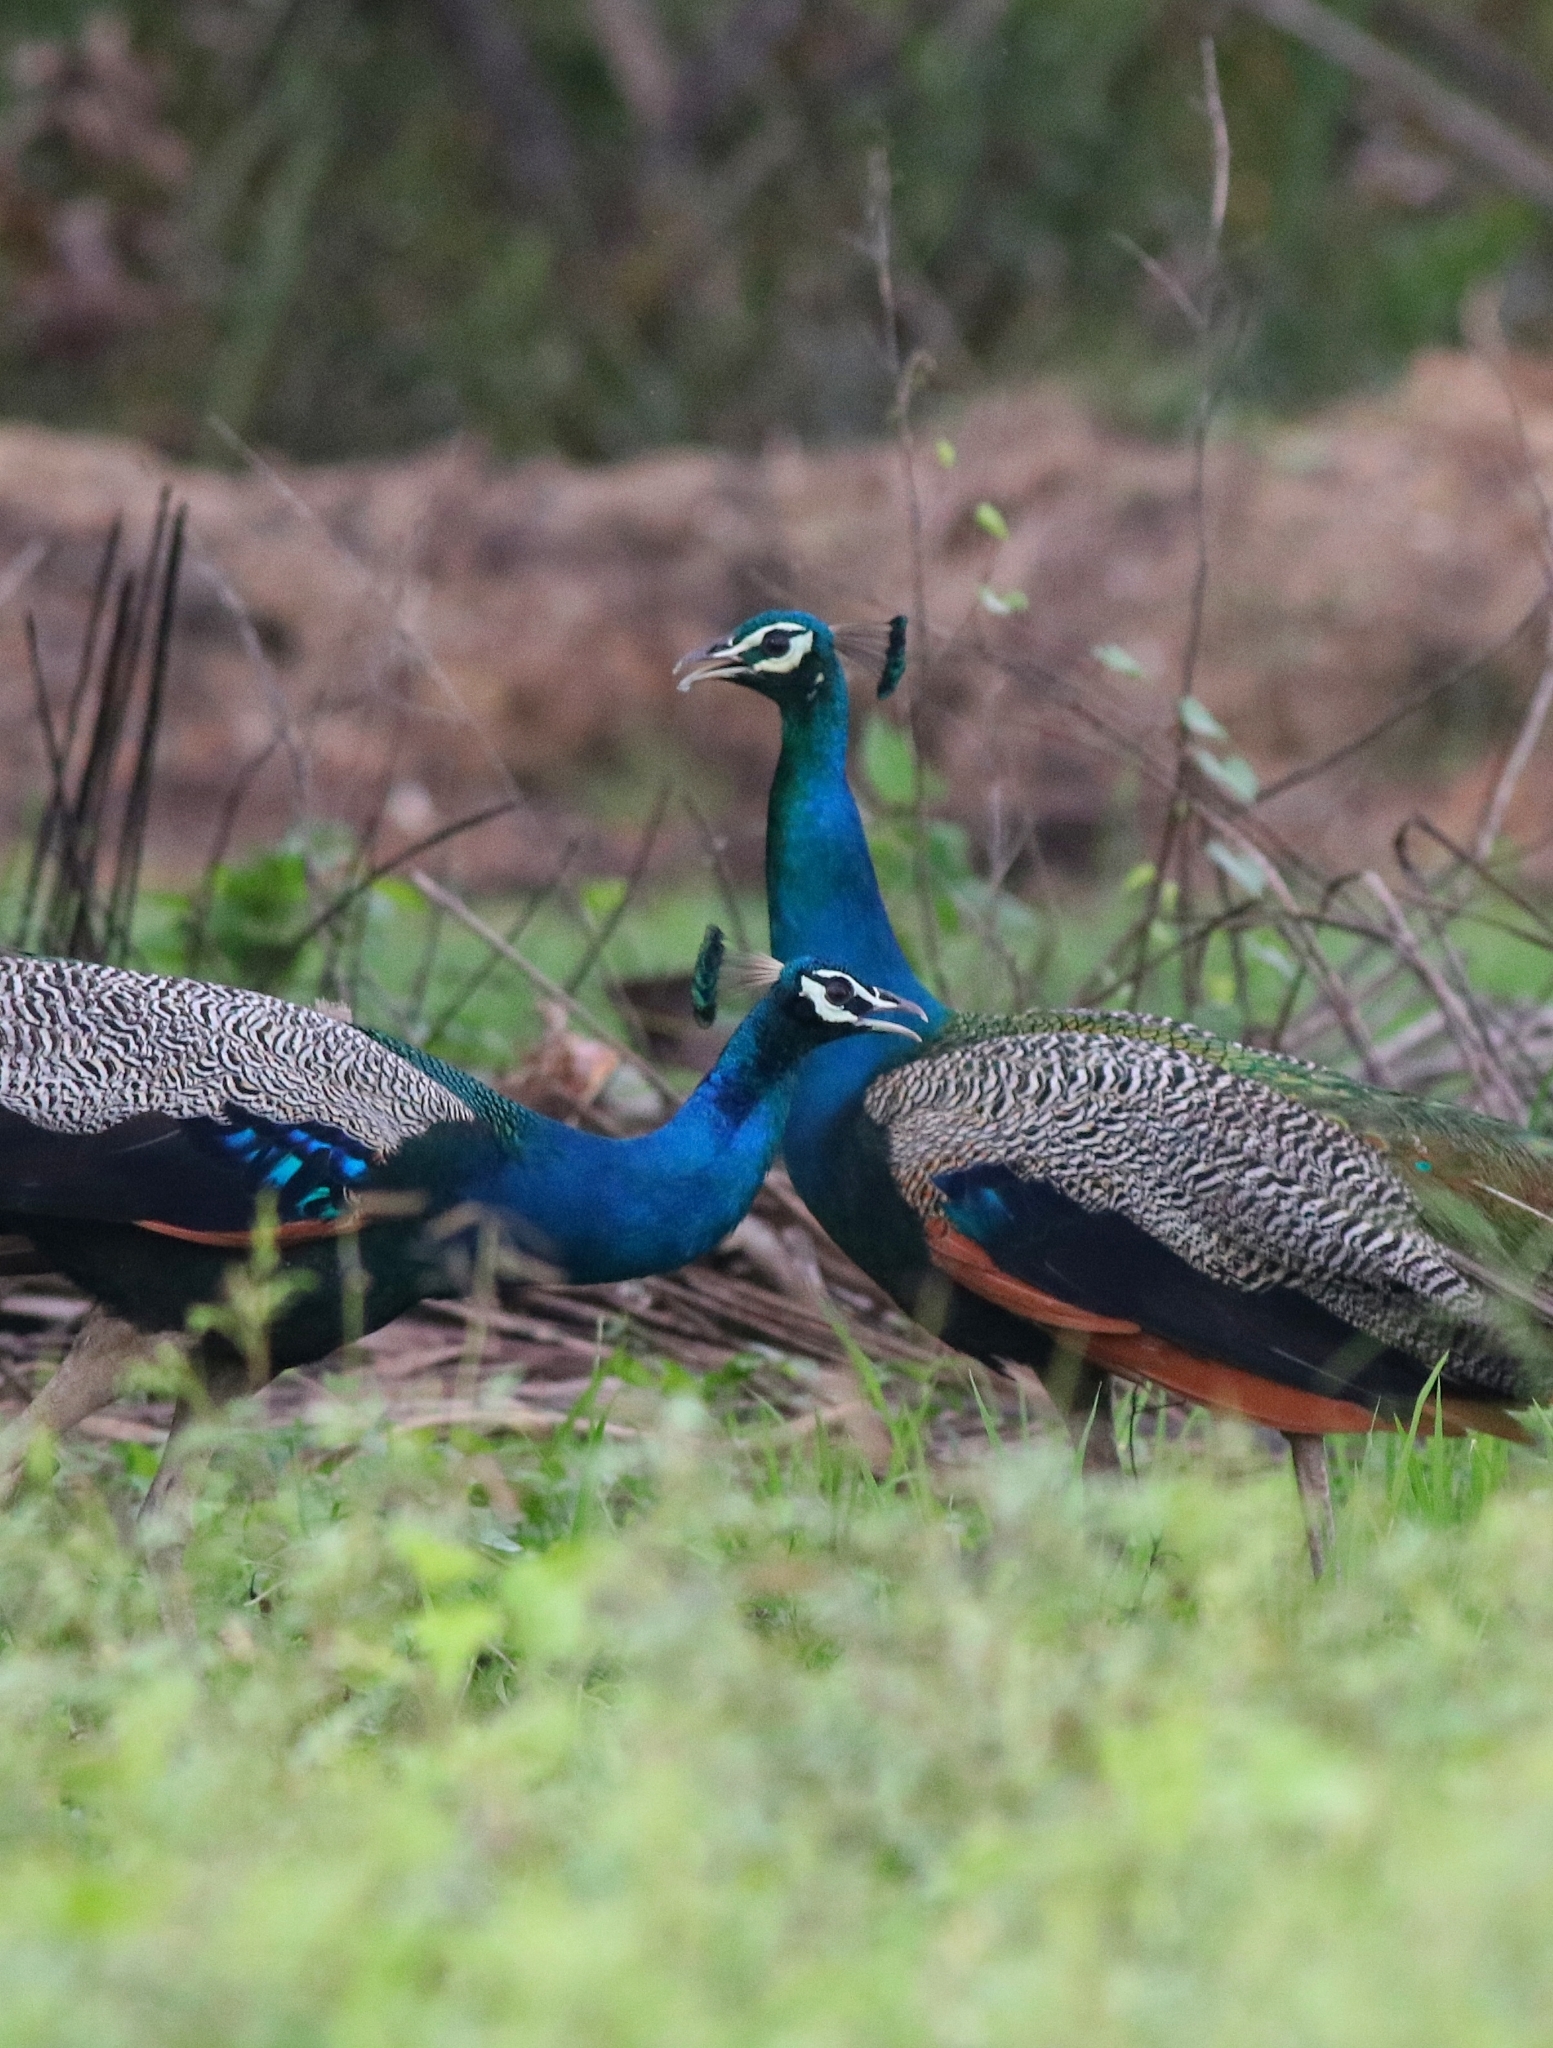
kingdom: Animalia
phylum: Chordata
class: Aves
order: Galliformes
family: Phasianidae
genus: Pavo
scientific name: Pavo cristatus
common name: Indian peafowl
